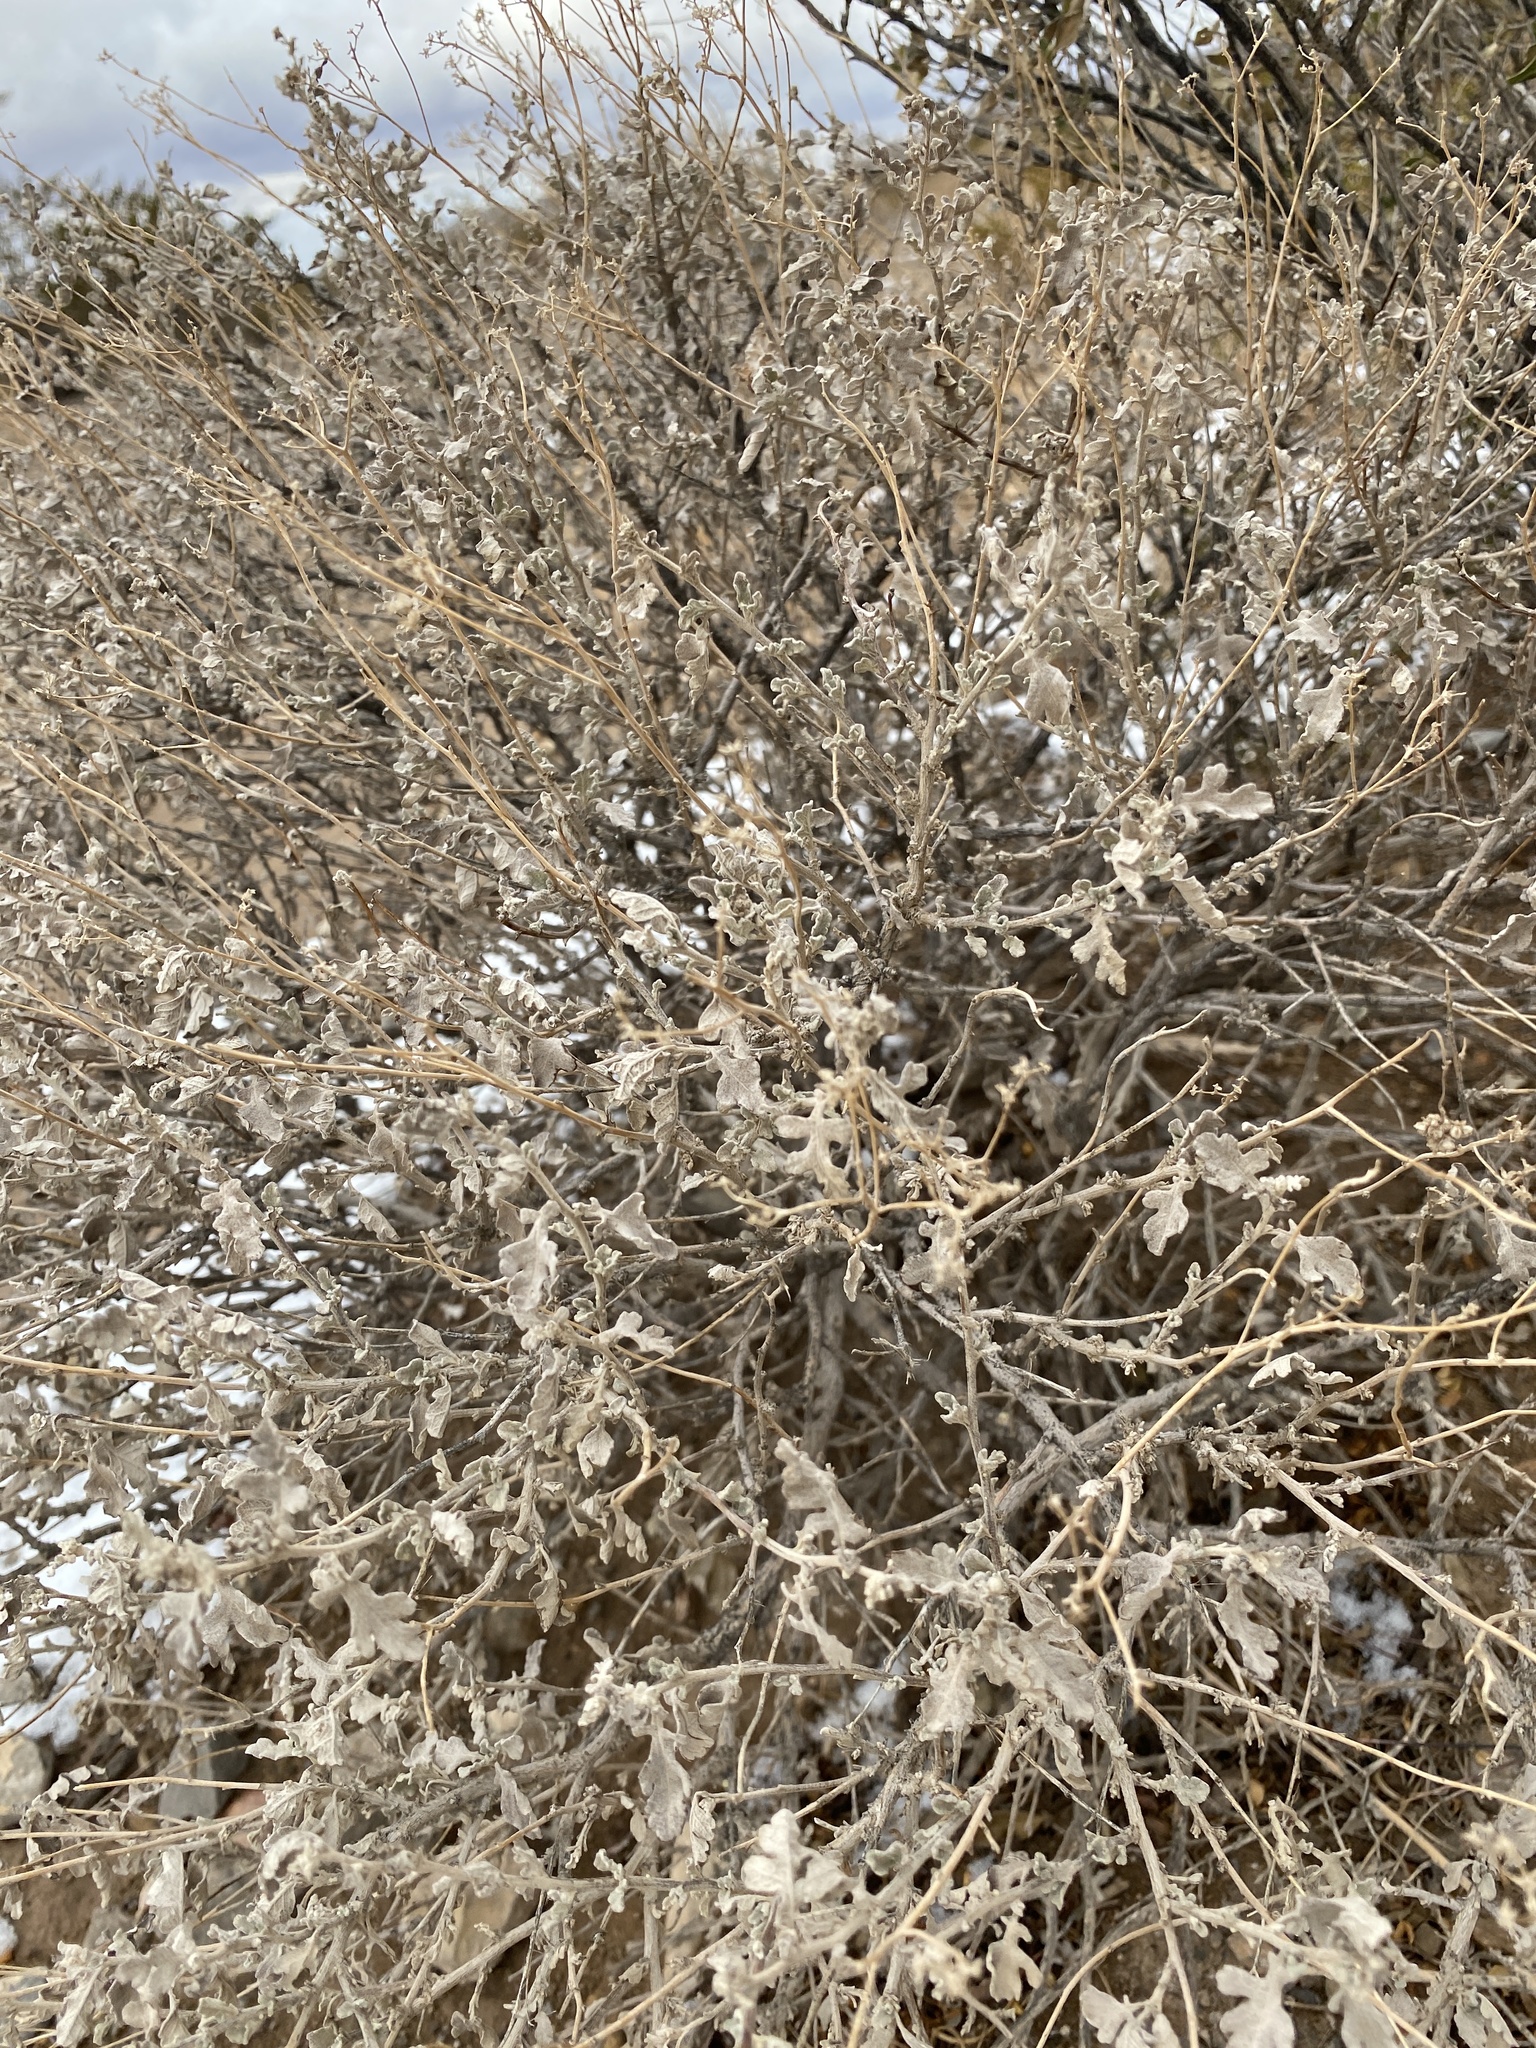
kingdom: Plantae
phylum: Tracheophyta
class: Magnoliopsida
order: Asterales
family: Asteraceae
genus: Parthenium
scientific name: Parthenium incanum
